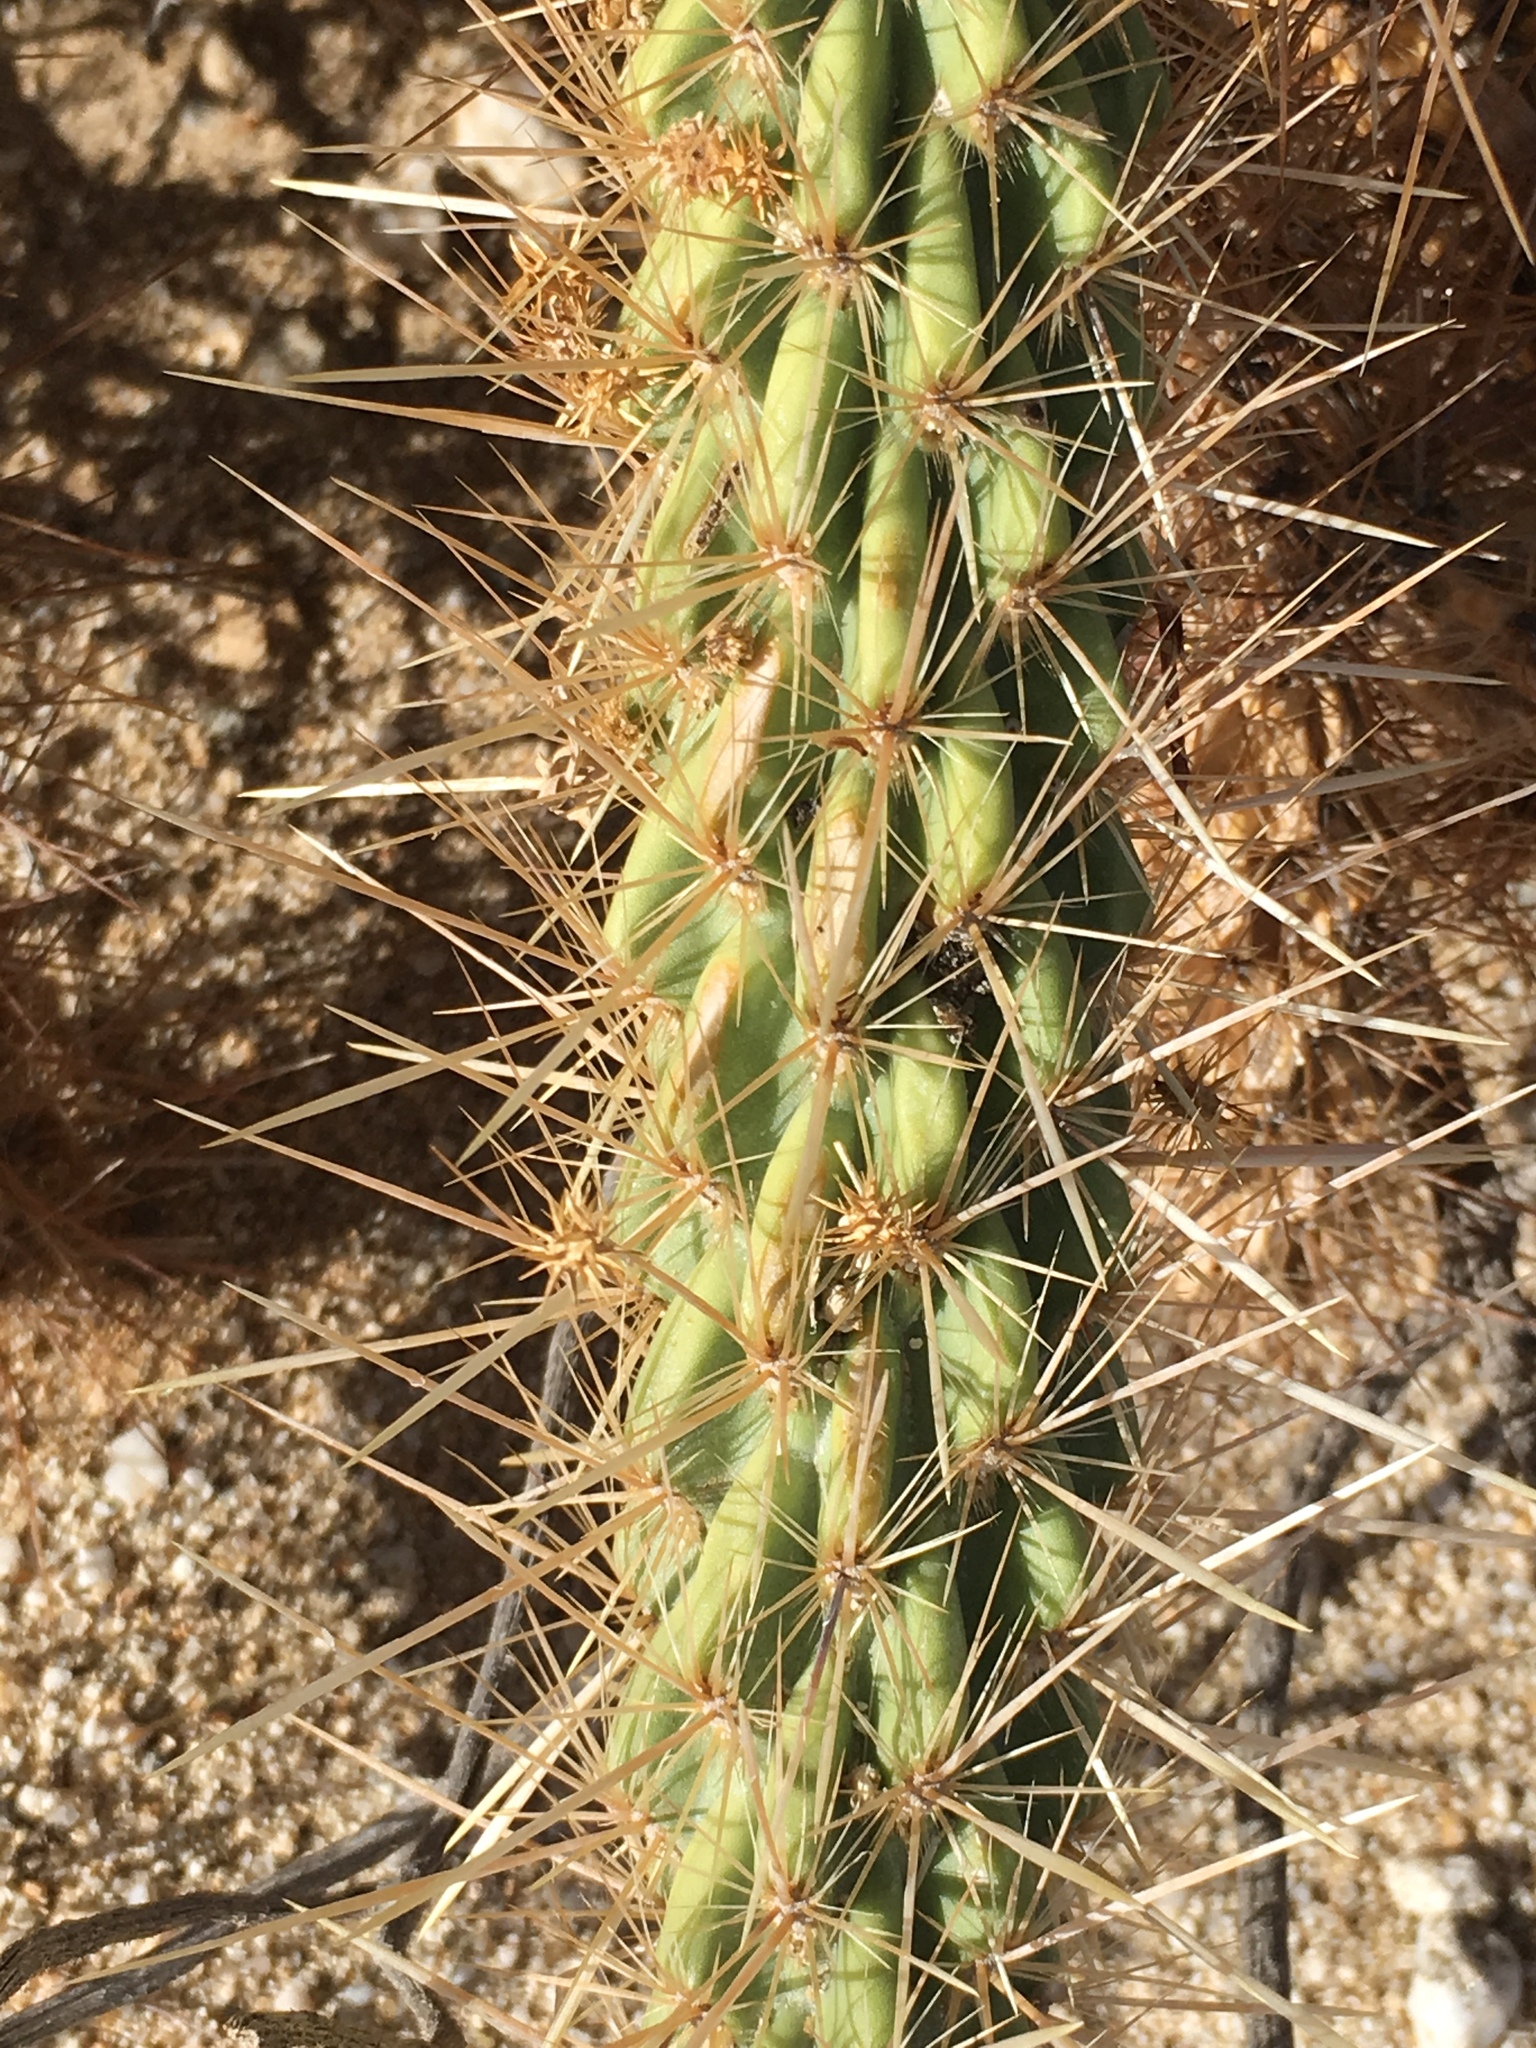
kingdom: Plantae
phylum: Tracheophyta
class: Magnoliopsida
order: Caryophyllales
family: Cactaceae
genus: Cylindropuntia
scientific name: Cylindropuntia ganderi
